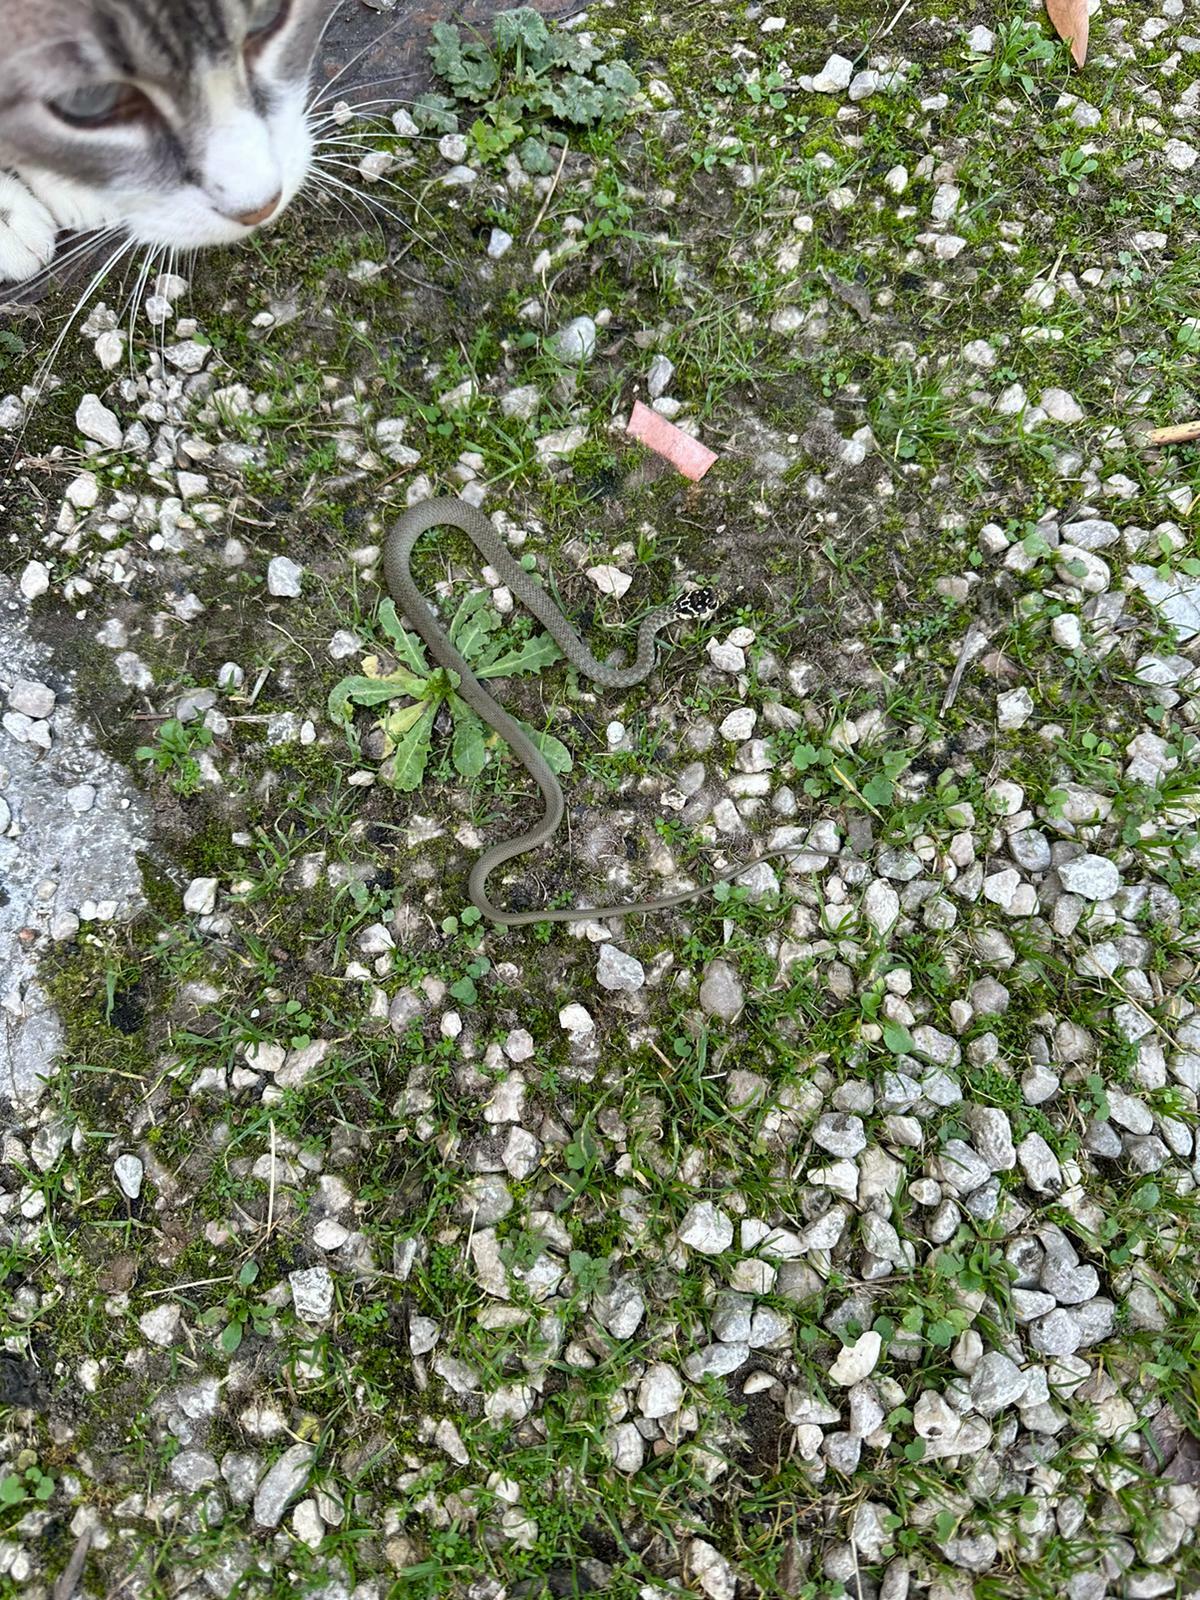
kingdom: Animalia
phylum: Chordata
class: Squamata
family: Colubridae
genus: Hierophis
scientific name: Hierophis viridiflavus
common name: Green whip snake
